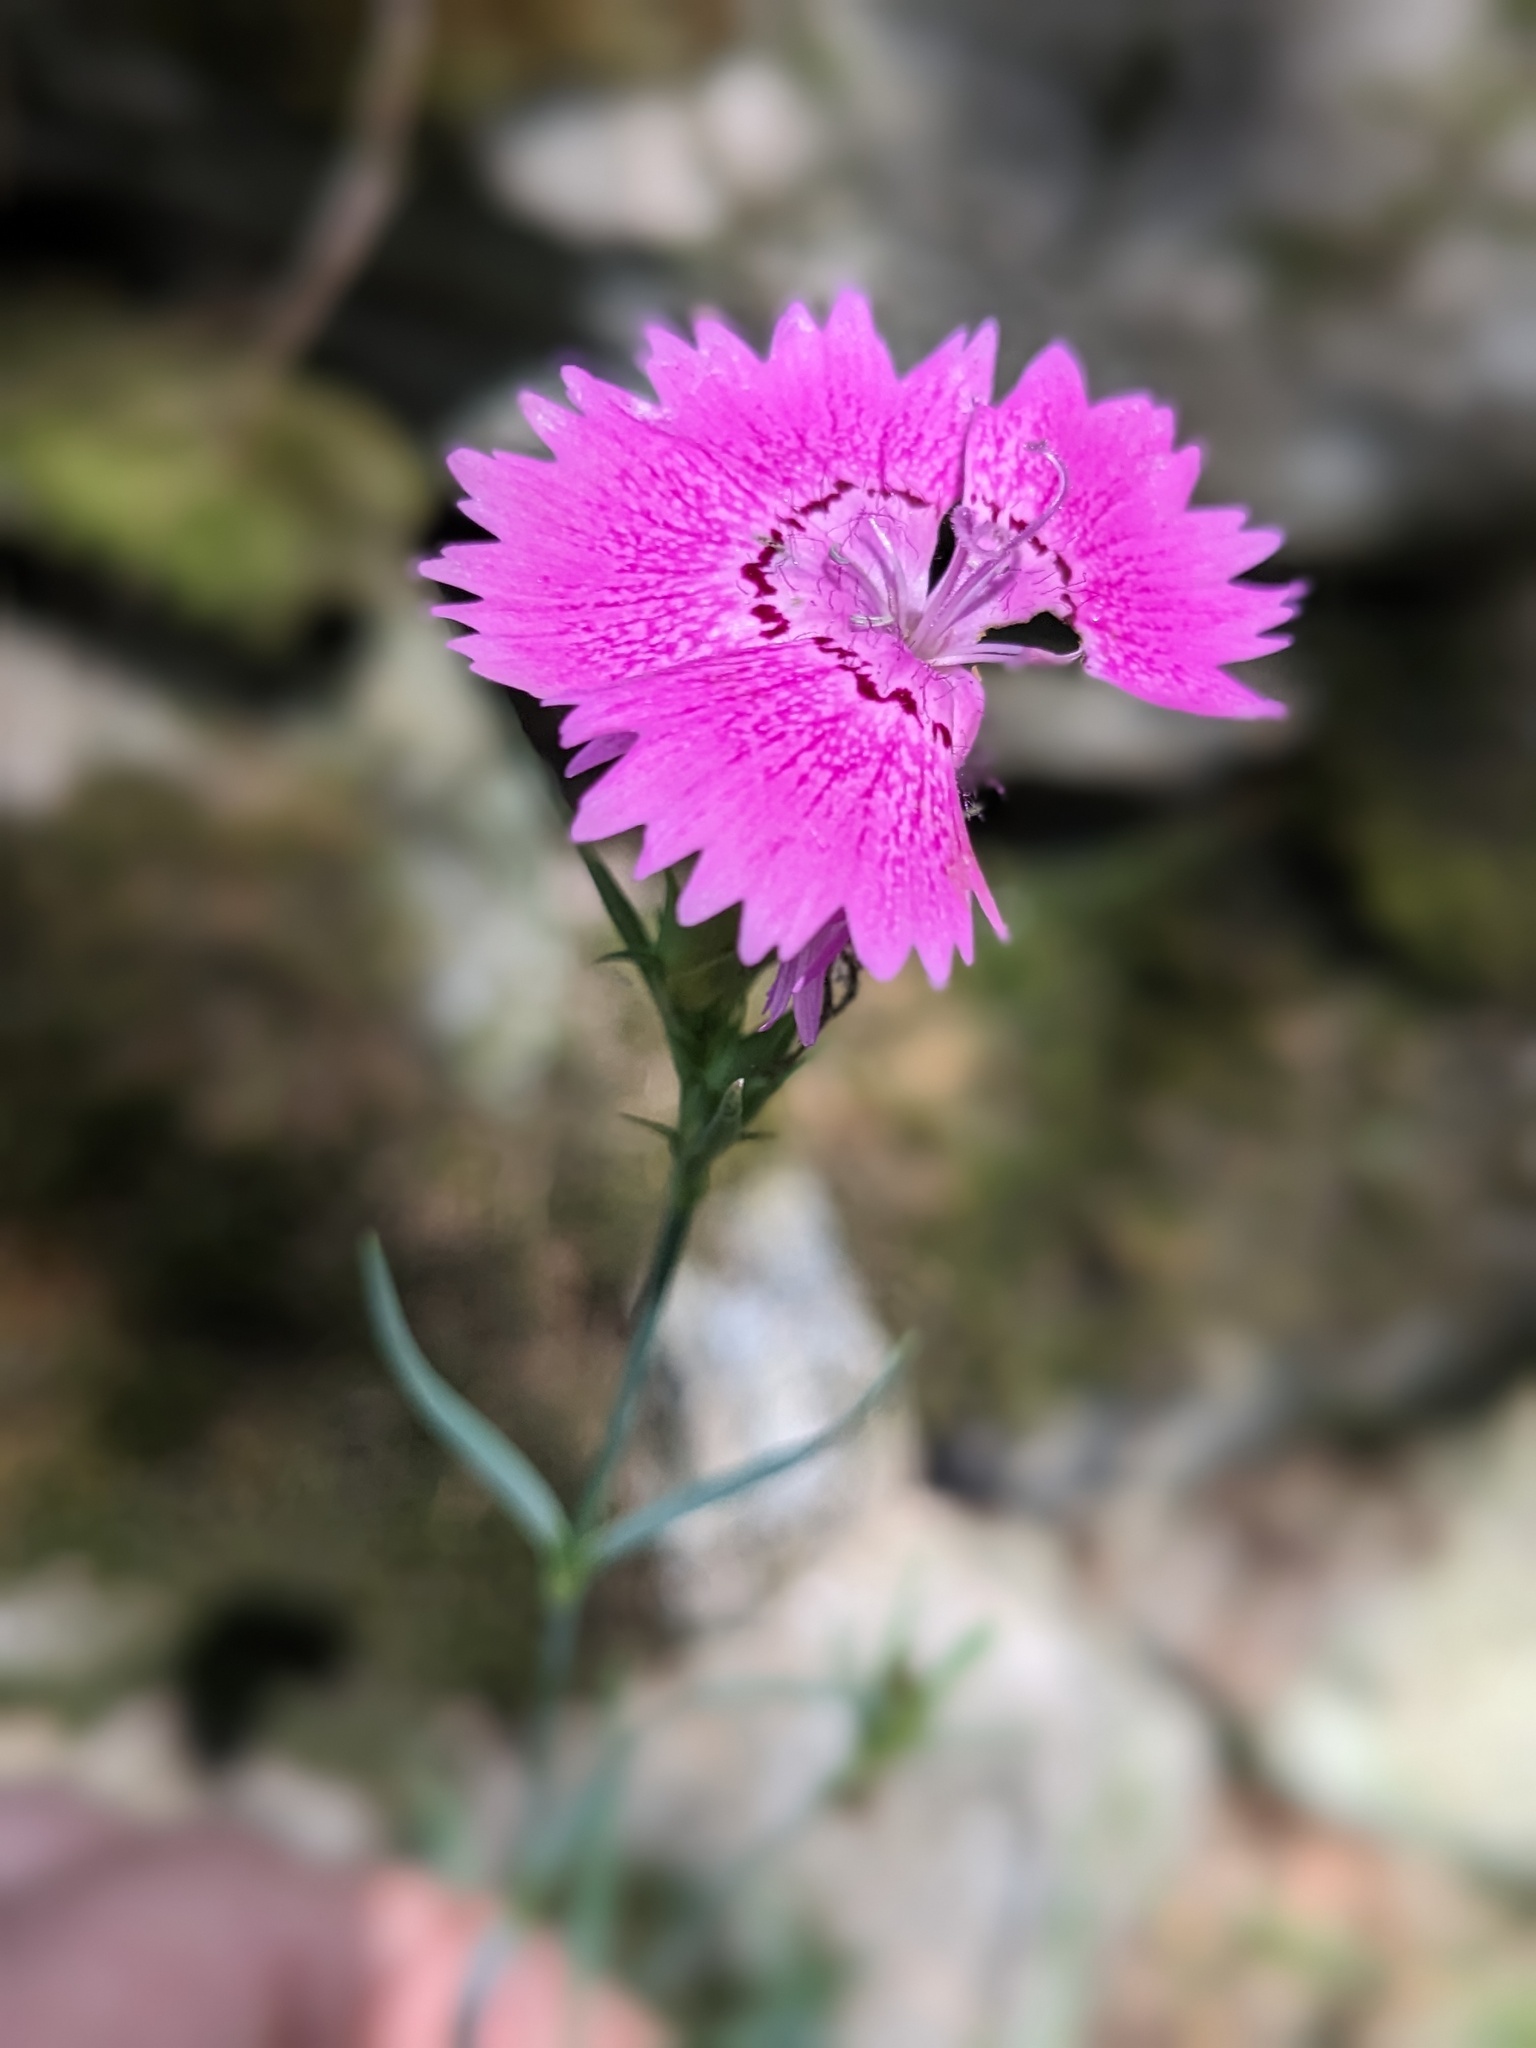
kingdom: Plantae
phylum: Tracheophyta
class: Magnoliopsida
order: Caryophyllales
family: Caryophyllaceae
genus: Dianthus
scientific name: Dianthus seguieri
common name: Ragged pink
